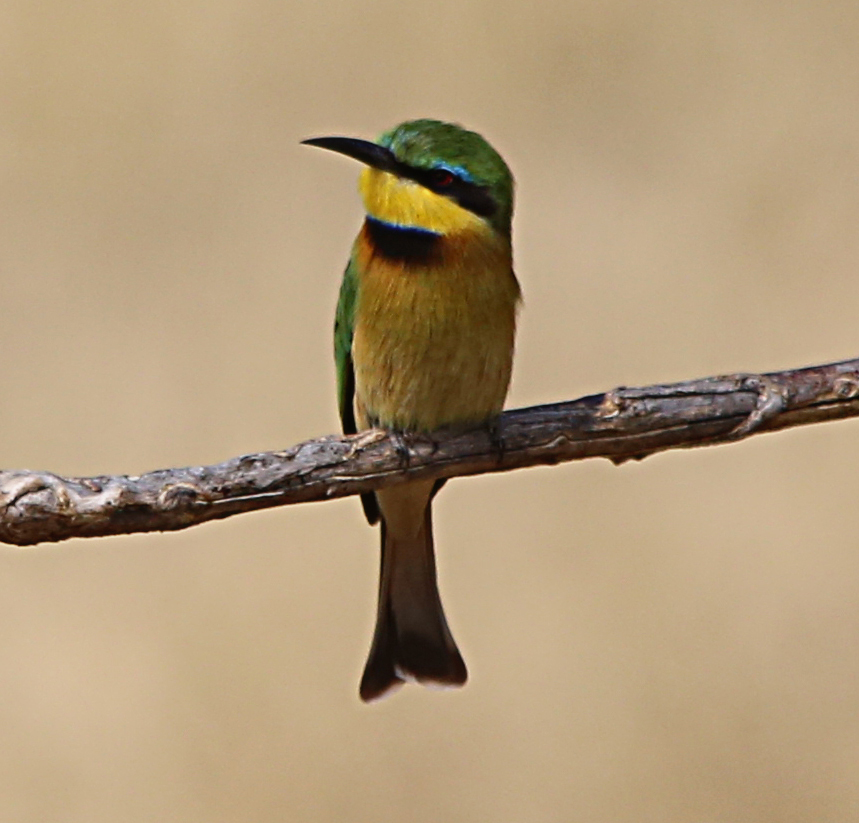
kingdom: Animalia
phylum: Chordata
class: Aves
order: Coraciiformes
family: Meropidae
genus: Merops
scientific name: Merops pusillus
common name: Little bee-eater
